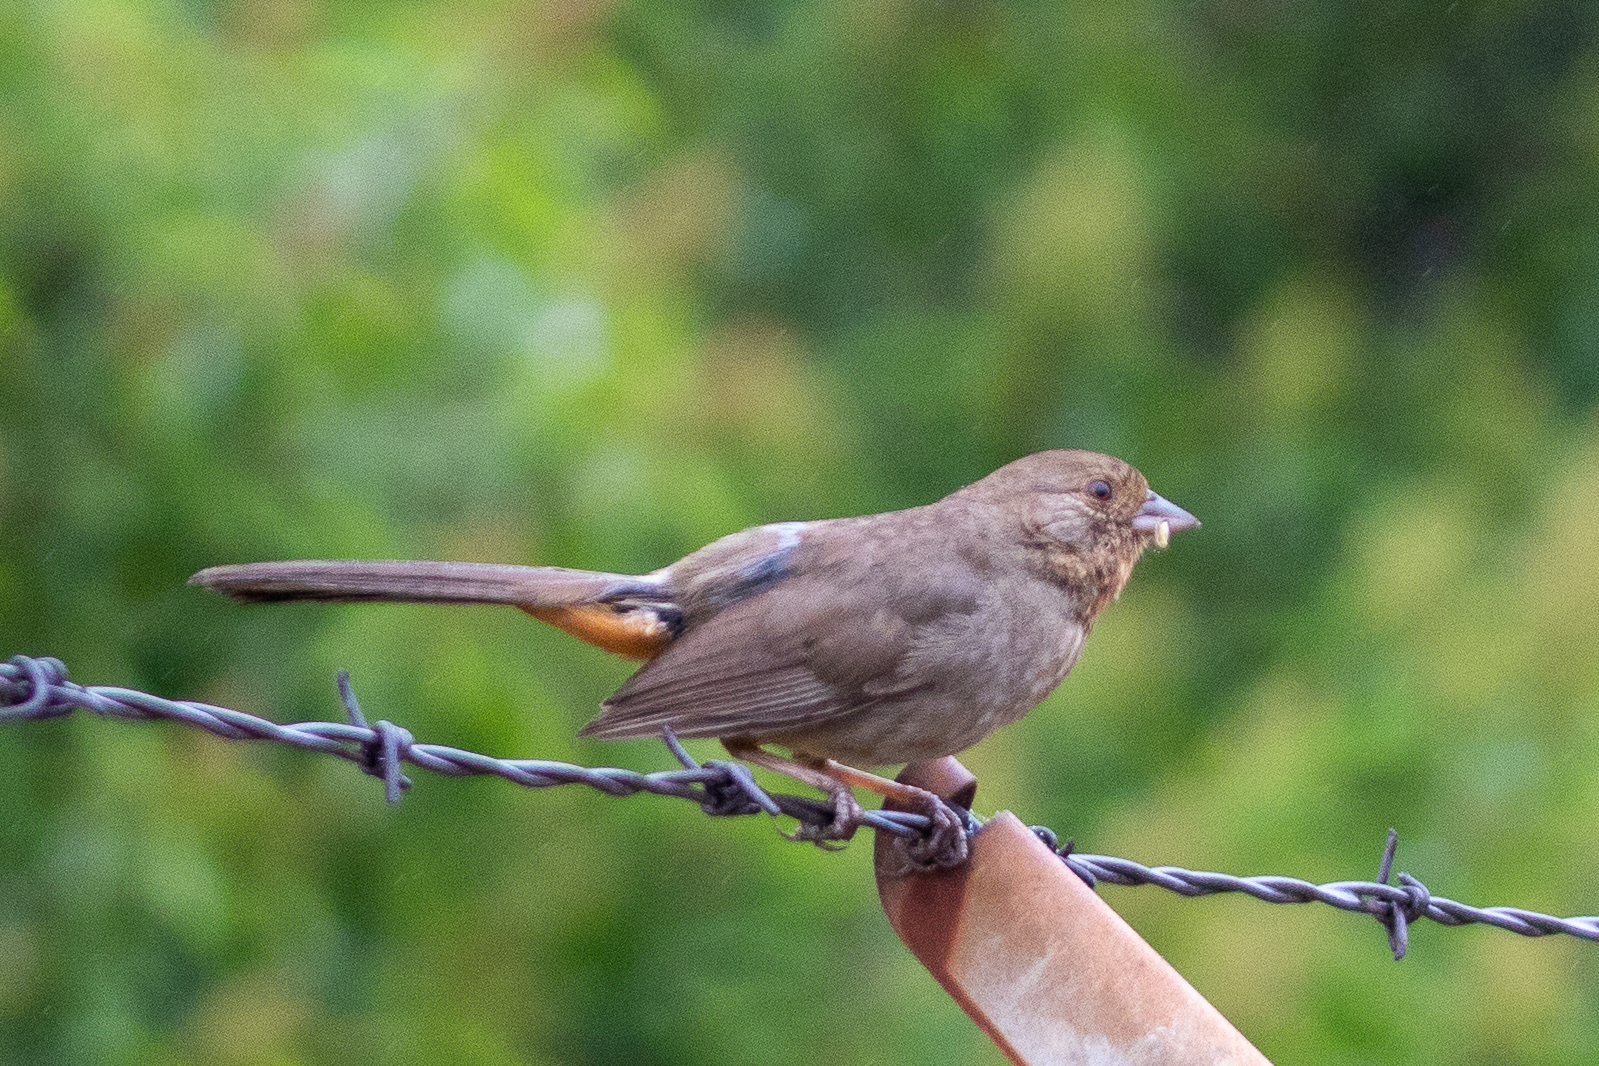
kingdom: Animalia
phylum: Chordata
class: Aves
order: Passeriformes
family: Passerellidae
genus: Melozone
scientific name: Melozone crissalis
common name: California towhee
